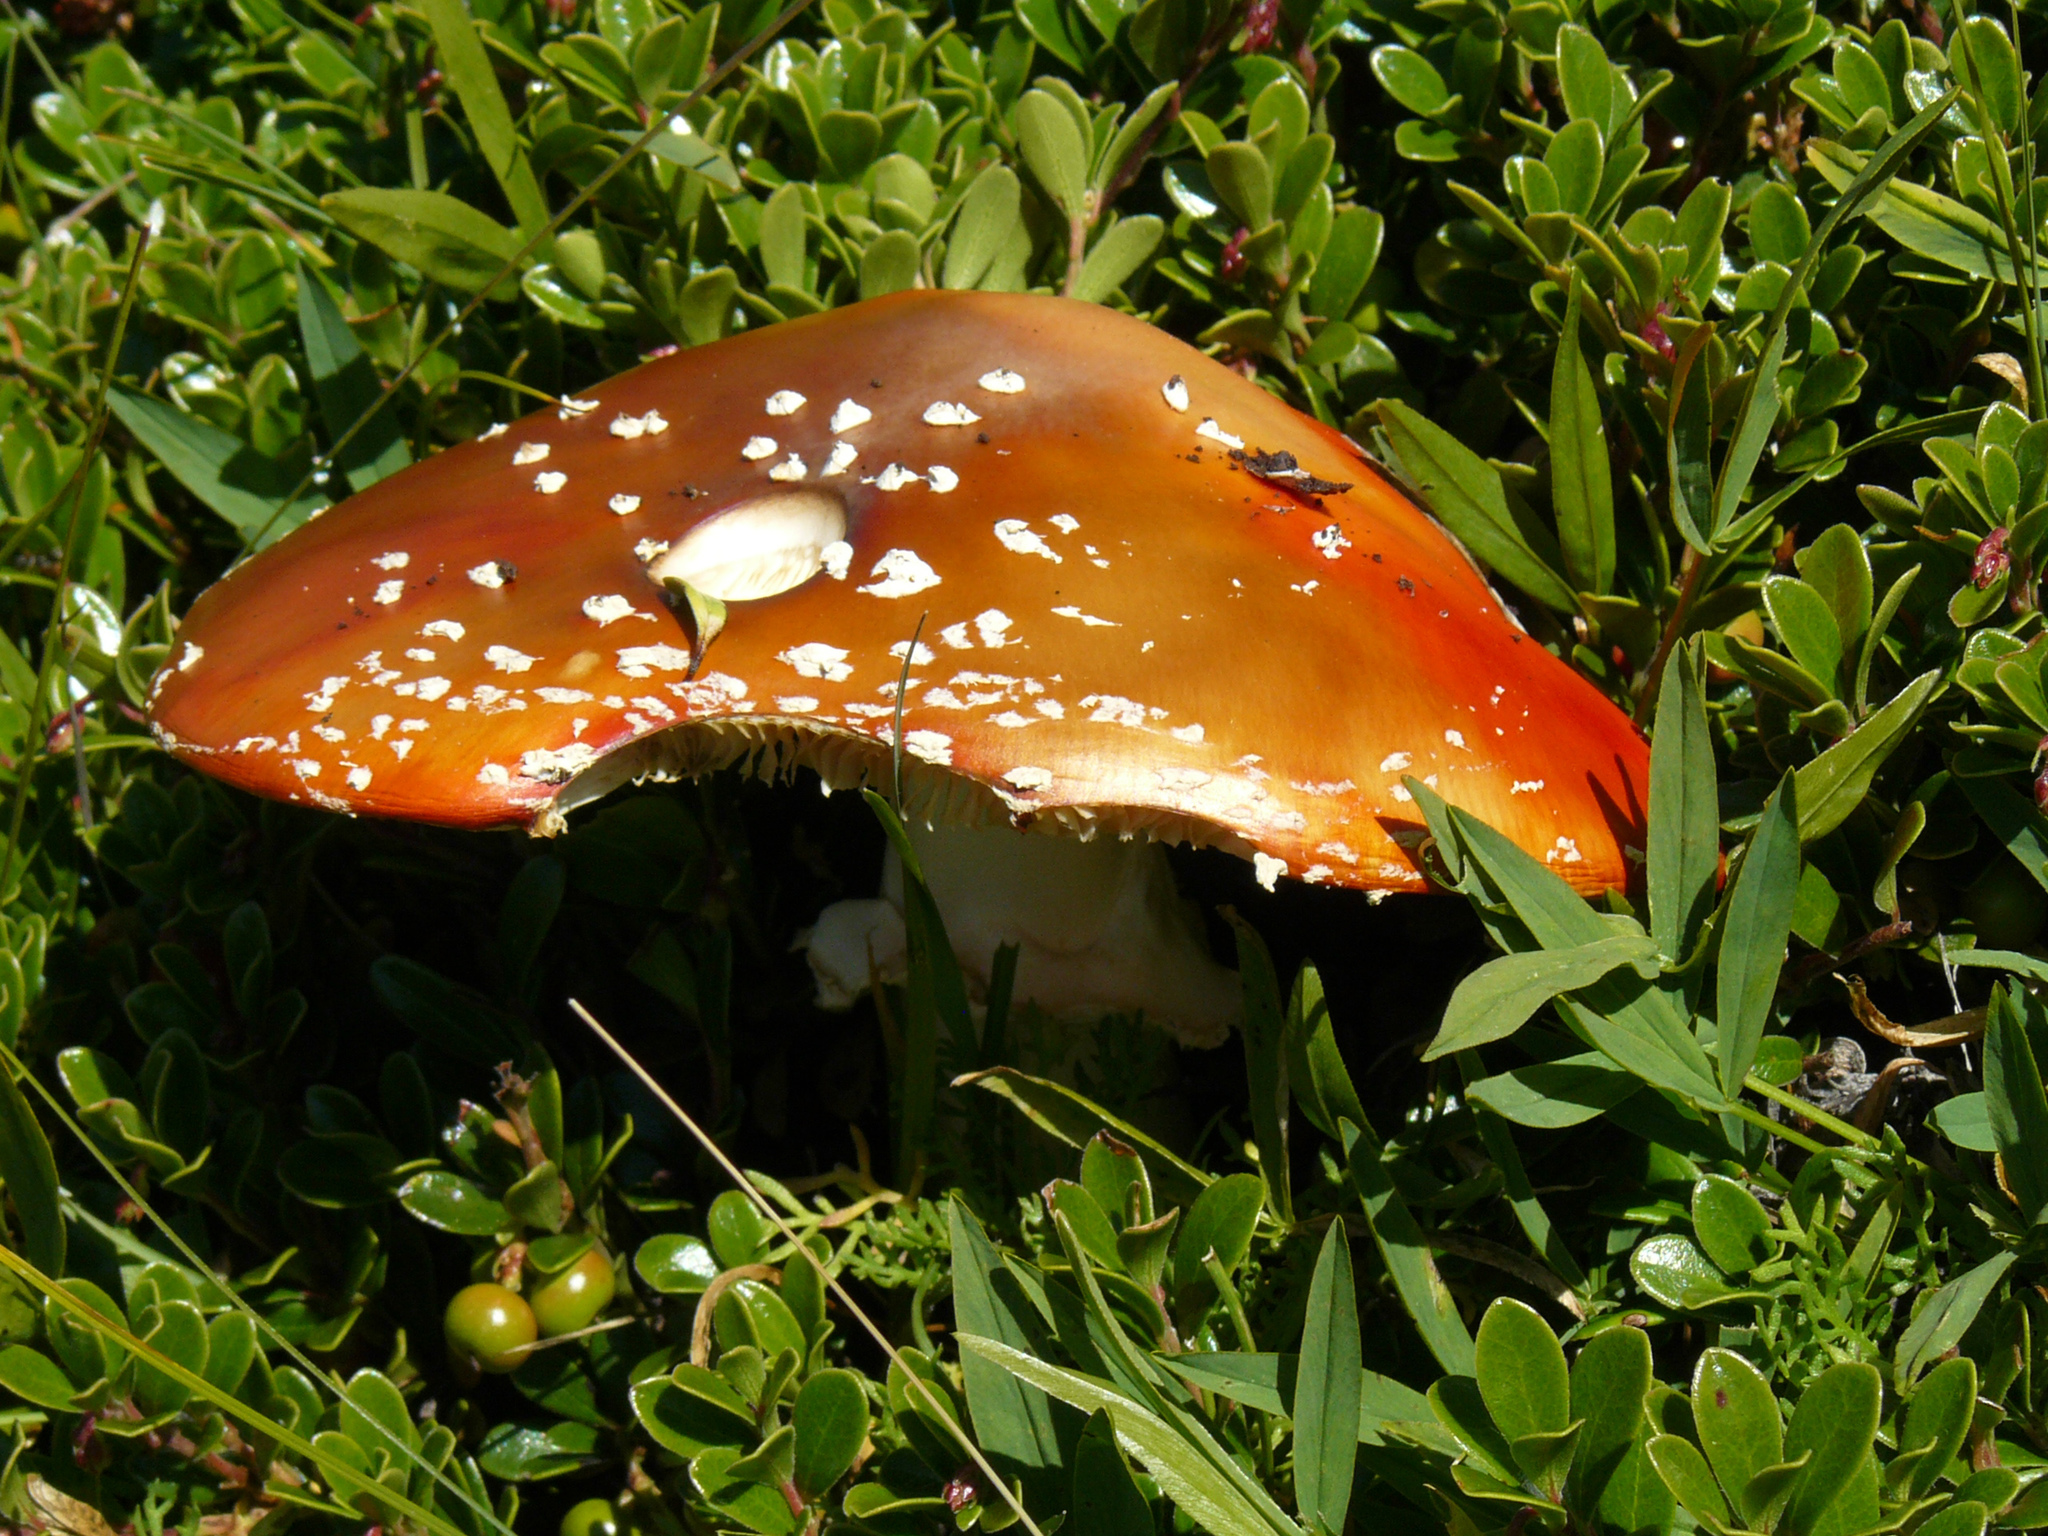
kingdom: Fungi
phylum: Basidiomycota
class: Agaricomycetes
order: Agaricales
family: Amanitaceae
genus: Amanita
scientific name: Amanita muscaria
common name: Fly agaric
